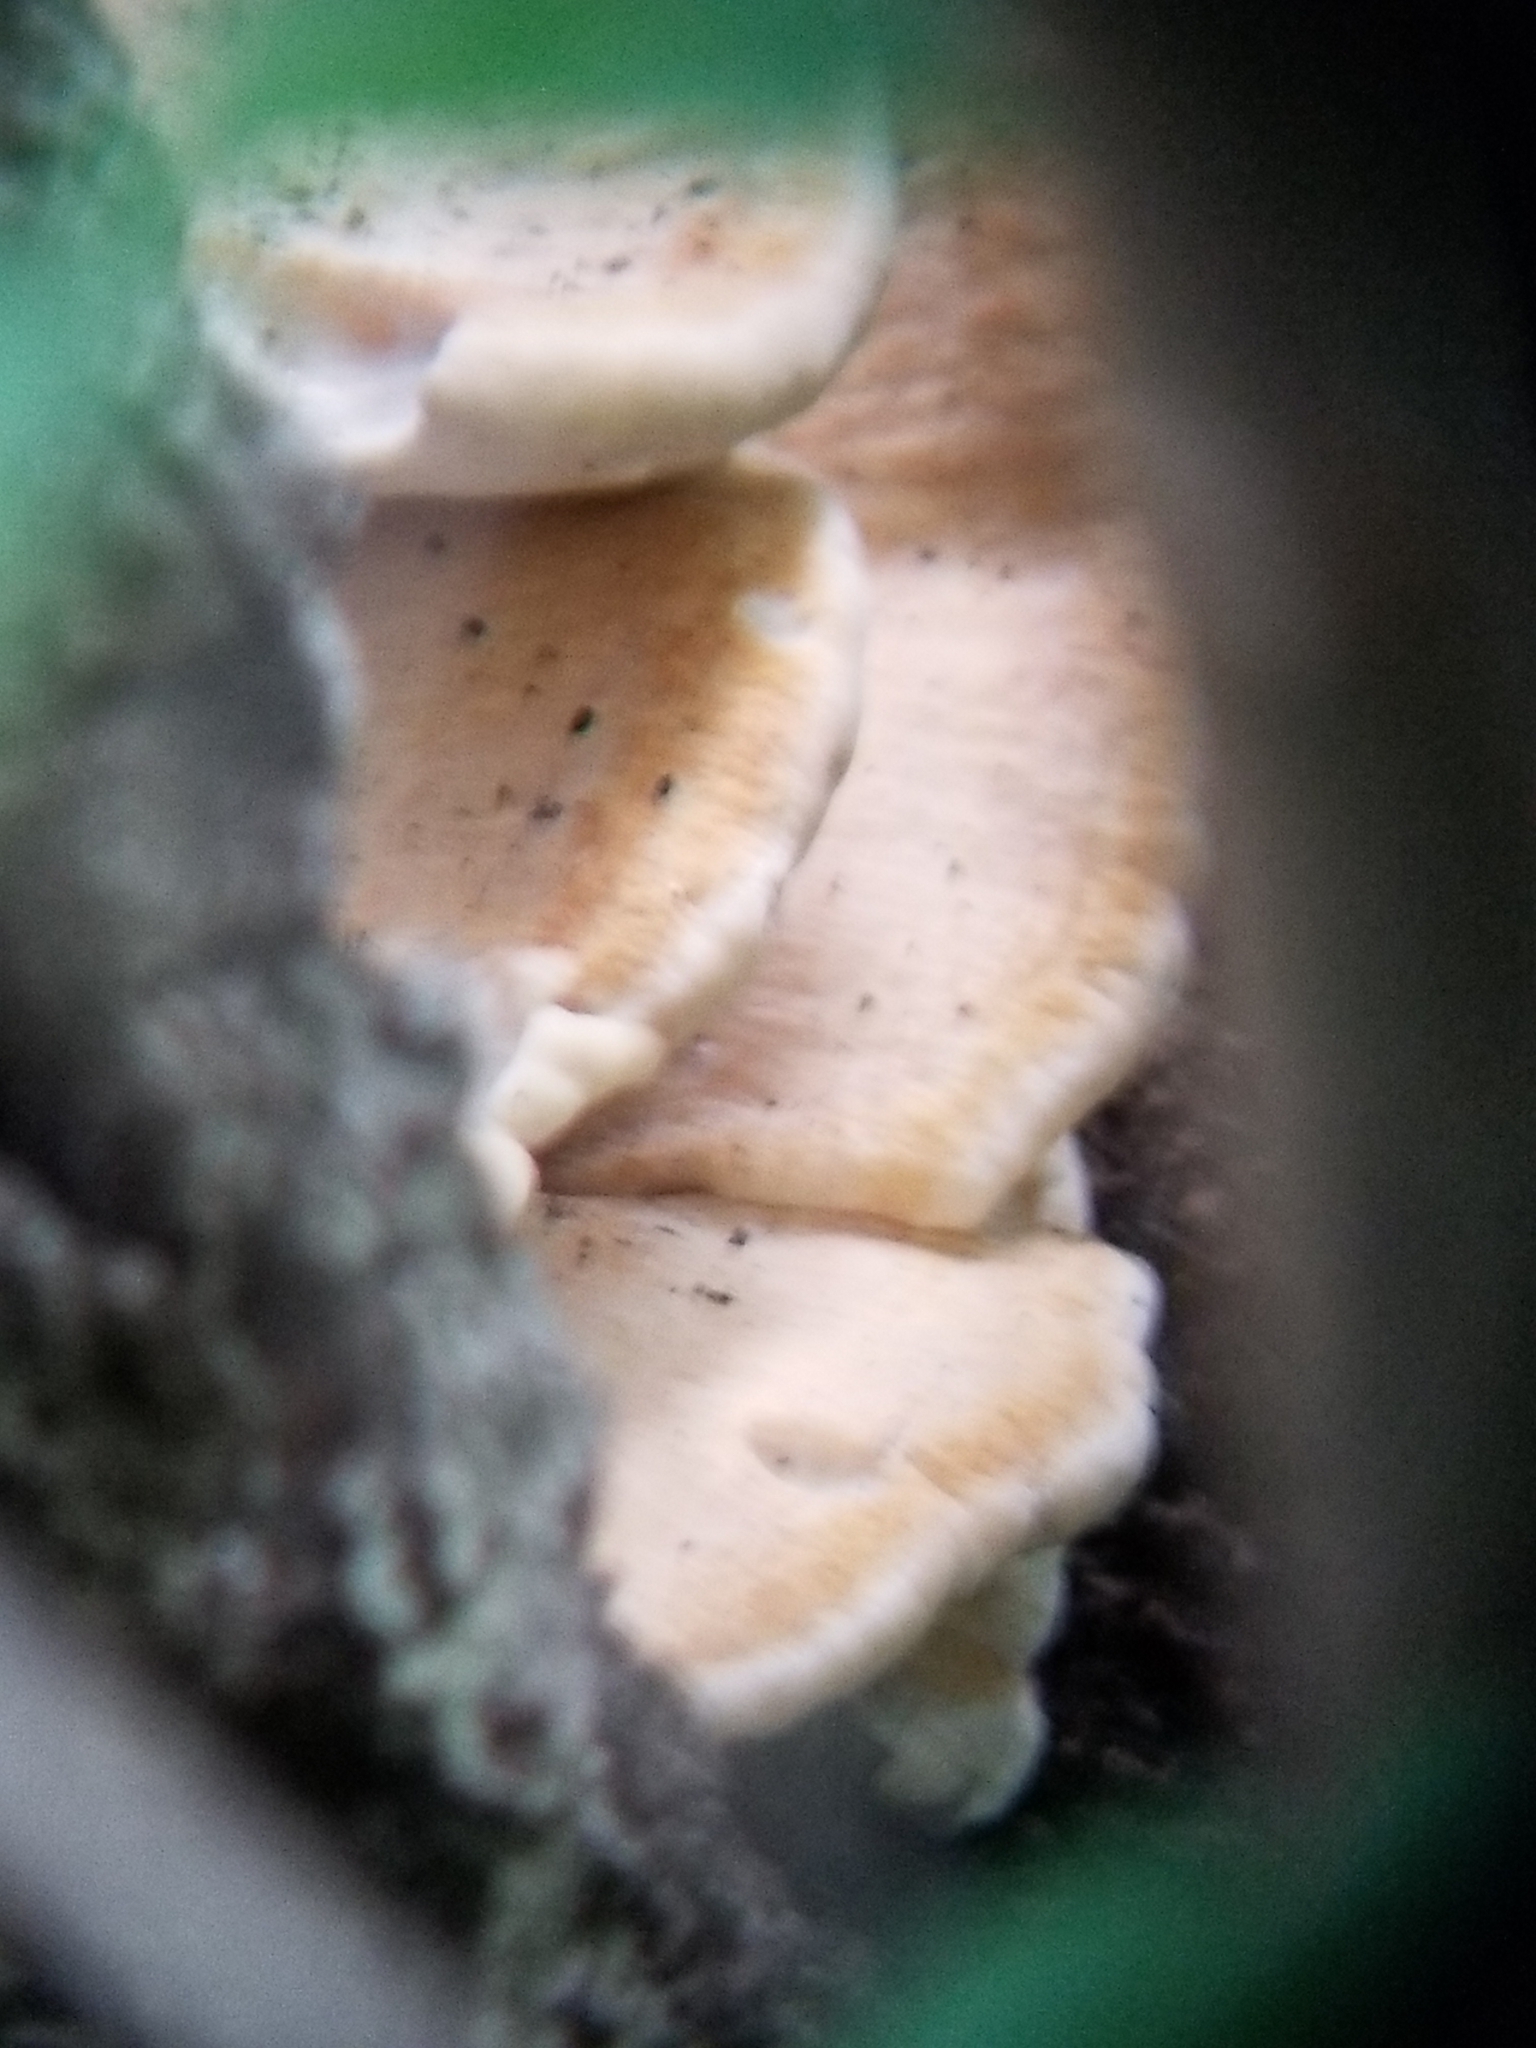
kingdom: Fungi
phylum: Basidiomycota
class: Agaricomycetes
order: Russulales
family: Bondarzewiaceae
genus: Bondarzewia
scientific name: Bondarzewia berkeleyi
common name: Berkeley's polypore
